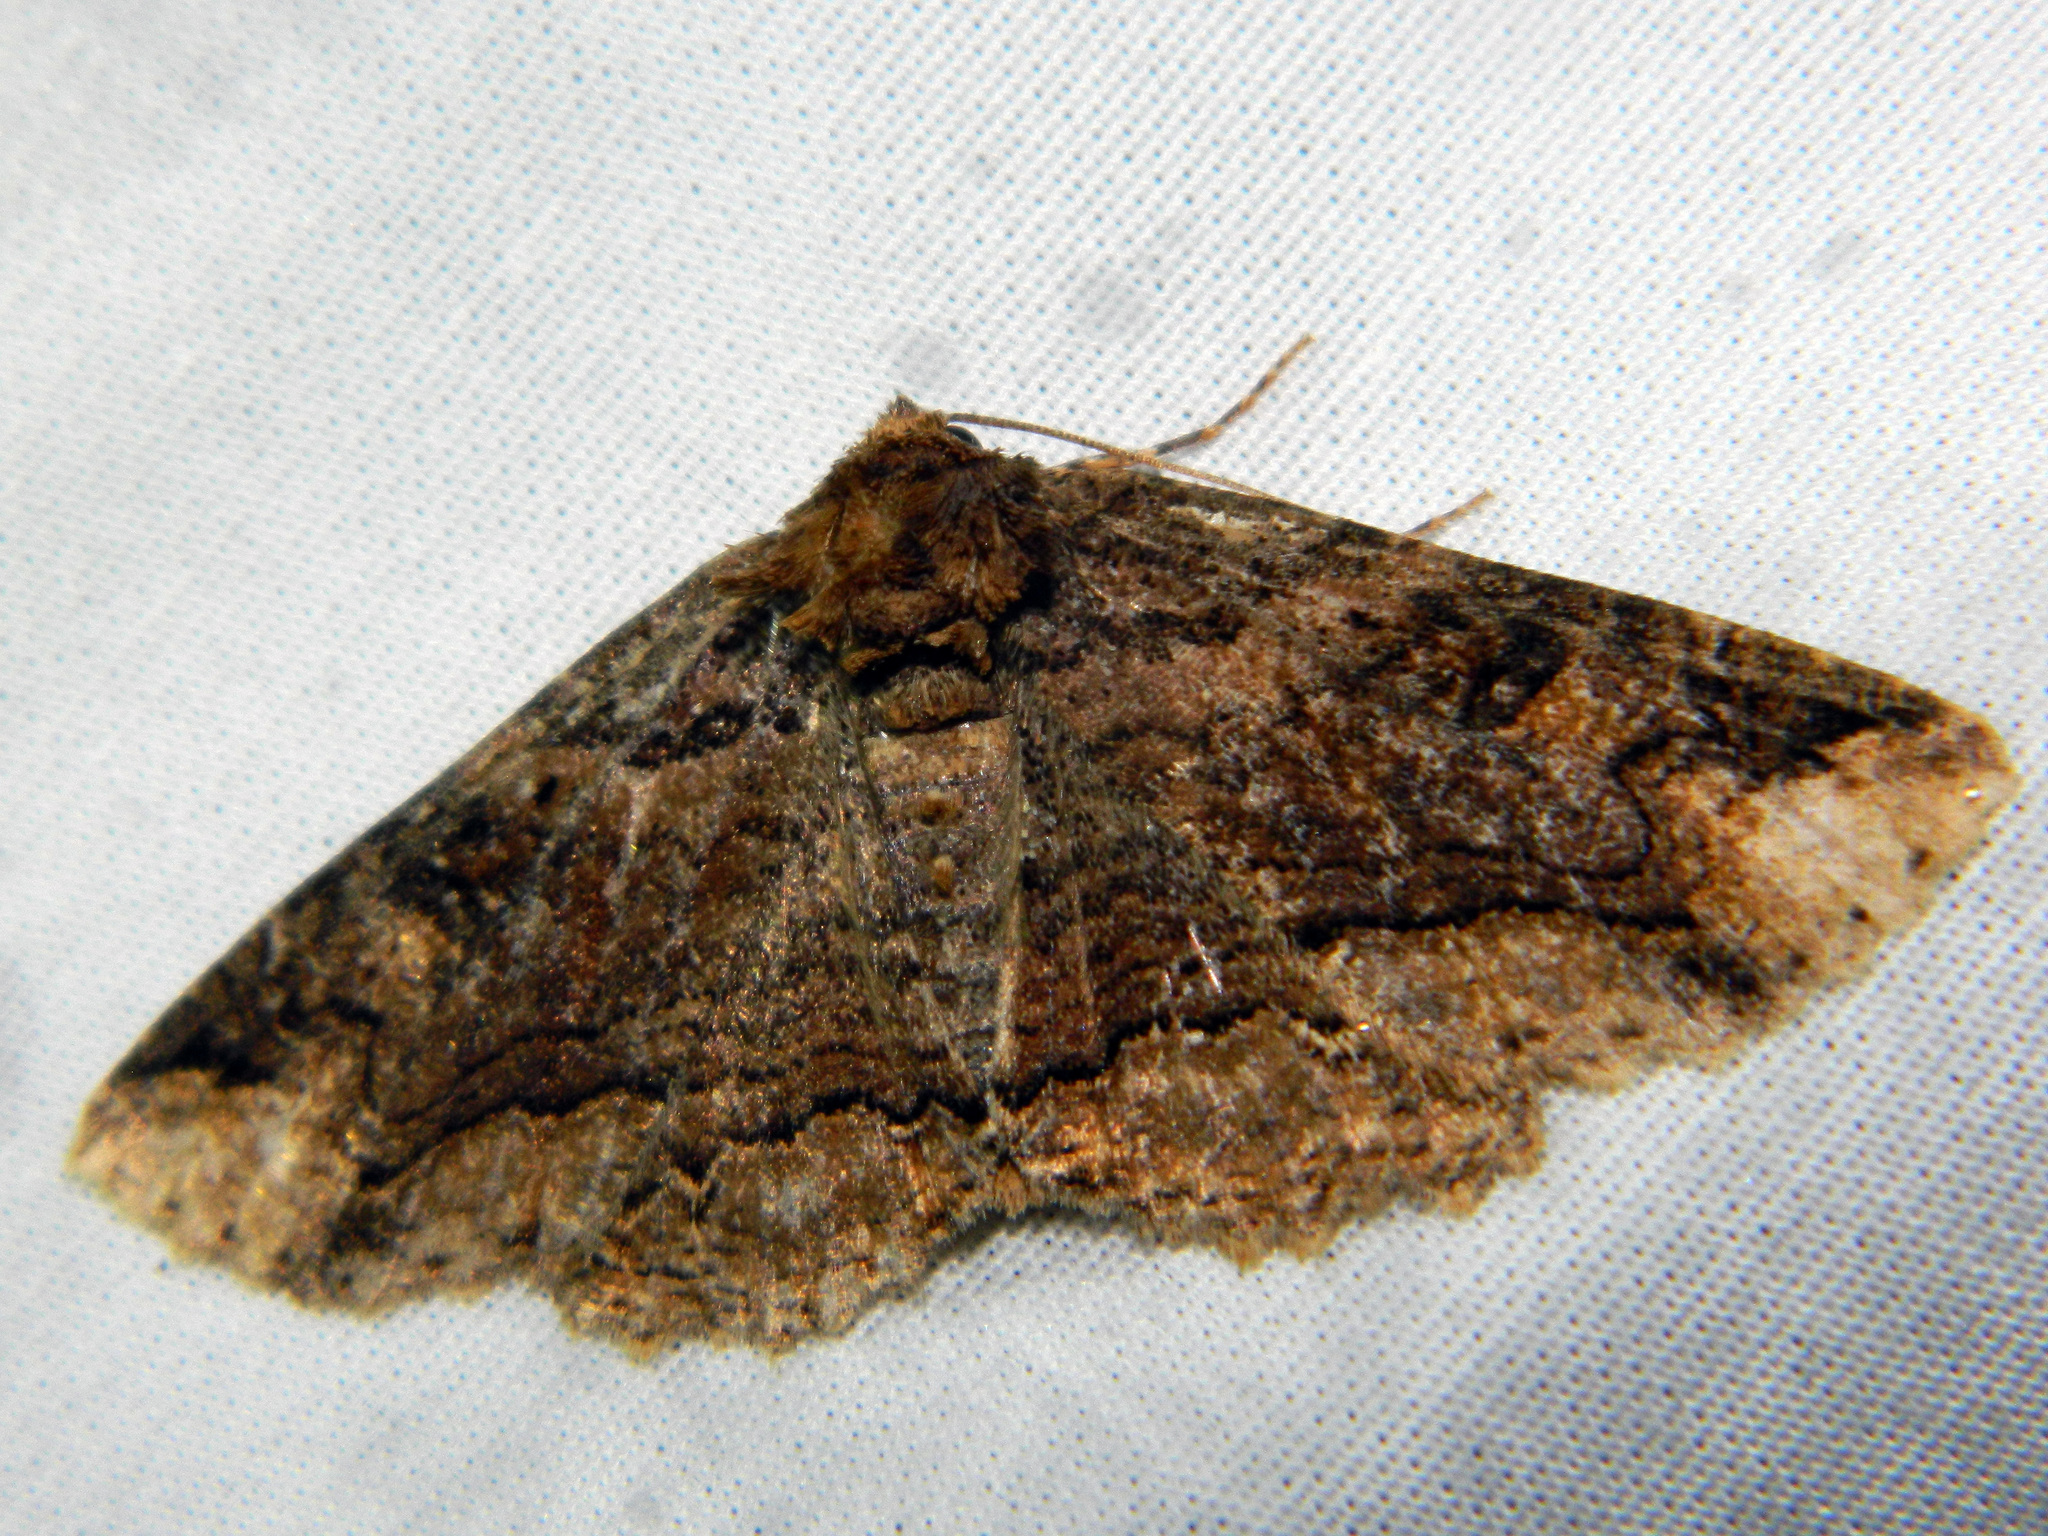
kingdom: Animalia
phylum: Arthropoda
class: Insecta
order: Lepidoptera
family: Erebidae
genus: Zale
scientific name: Zale minerea
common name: Colorful zale moth
